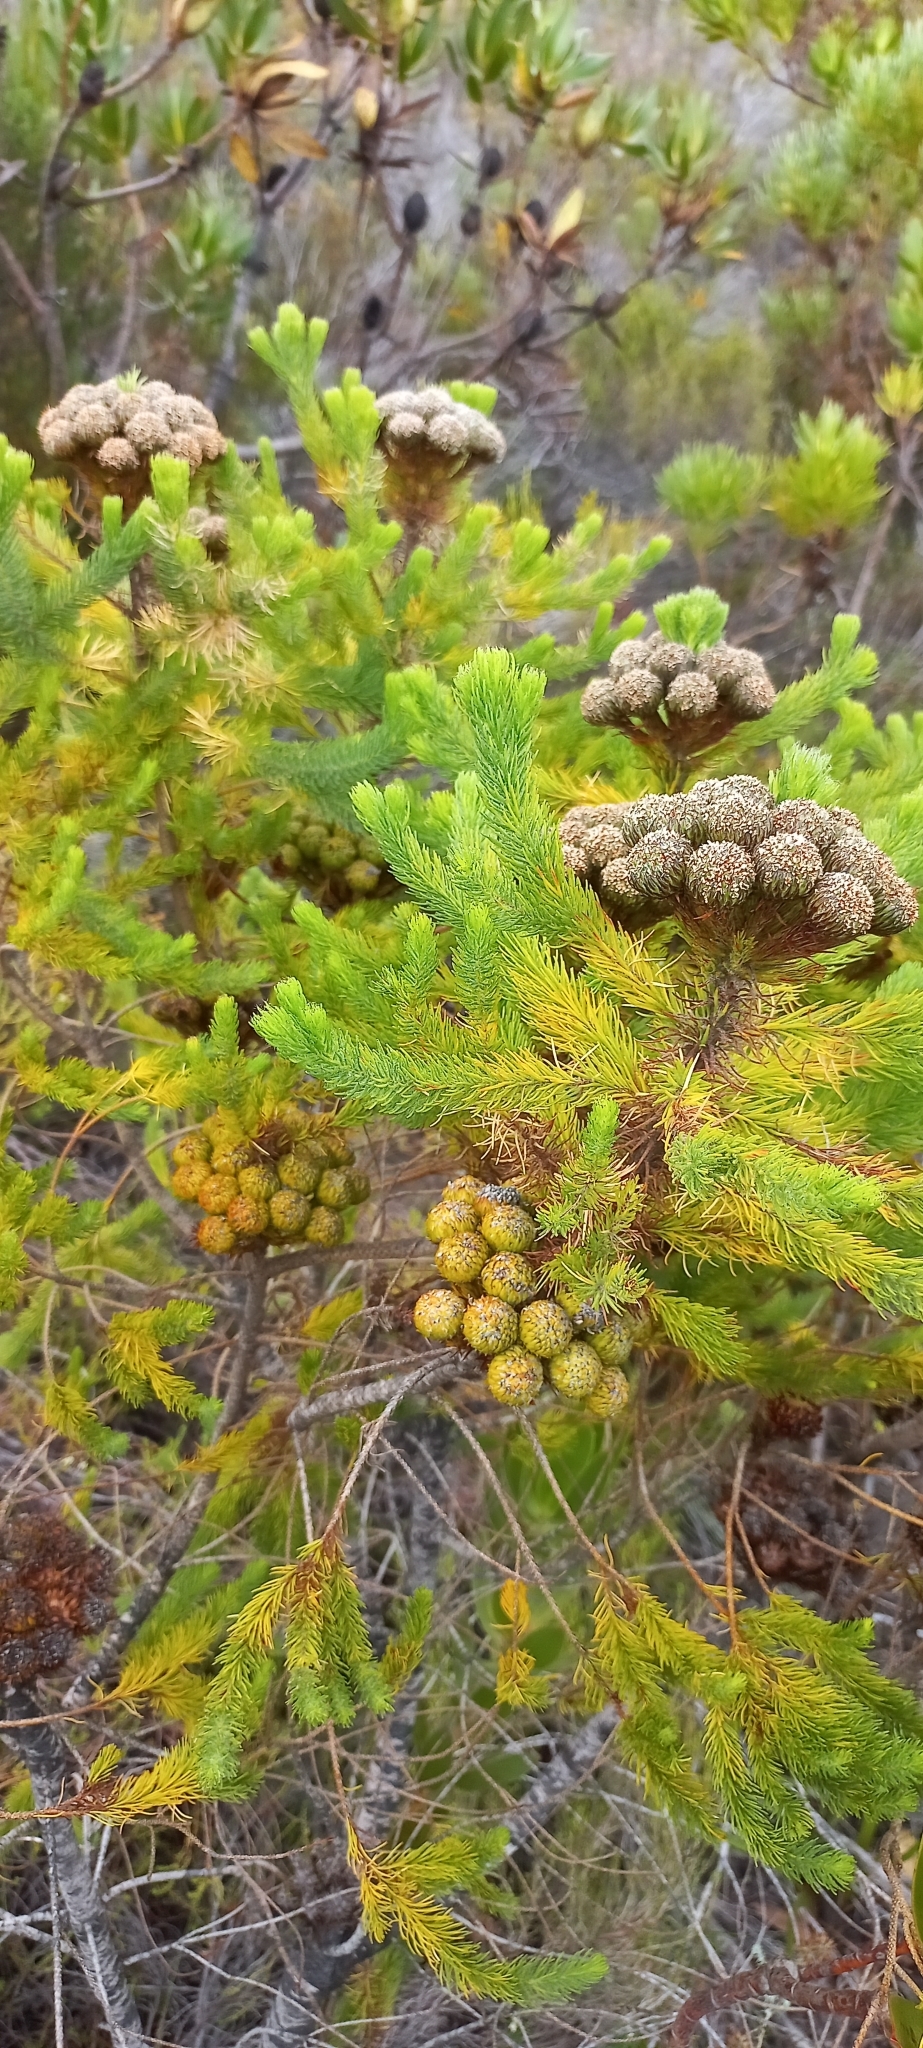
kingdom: Plantae
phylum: Tracheophyta
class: Magnoliopsida
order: Bruniales
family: Bruniaceae
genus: Berzelia
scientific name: Berzelia albiflora
